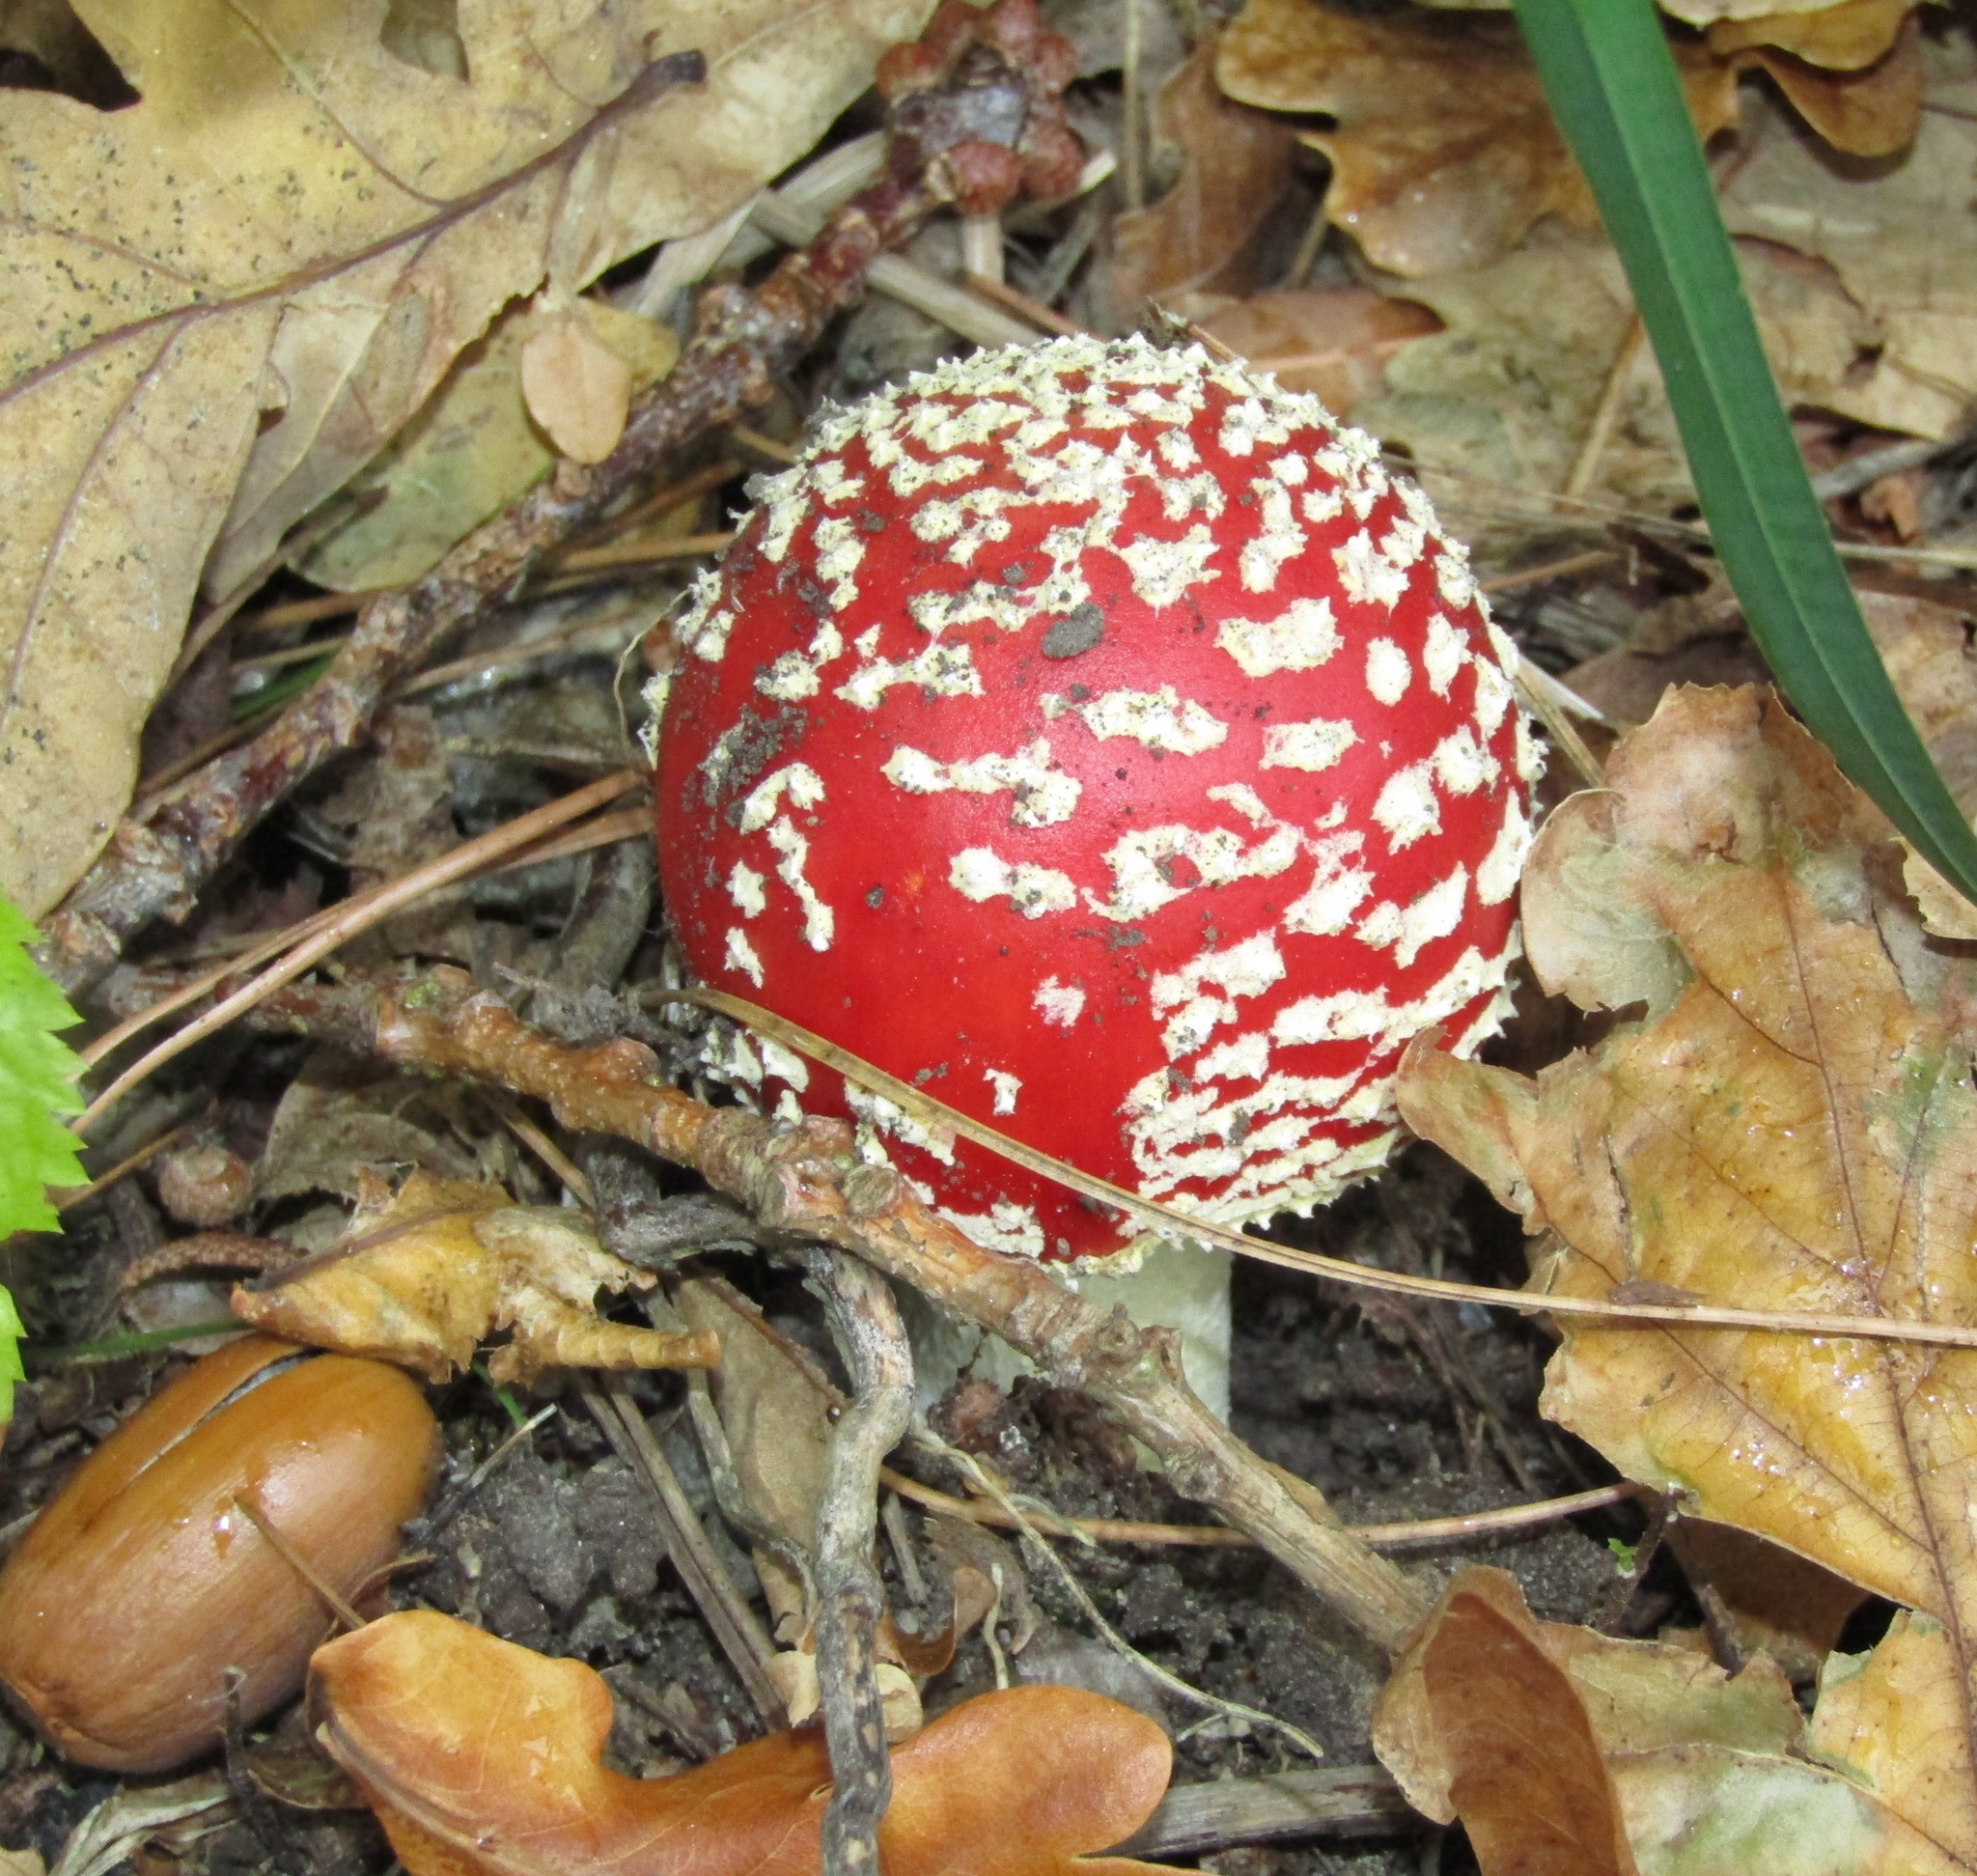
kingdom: Fungi
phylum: Basidiomycota
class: Agaricomycetes
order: Agaricales
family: Amanitaceae
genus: Amanita
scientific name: Amanita muscaria
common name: Fly agaric
